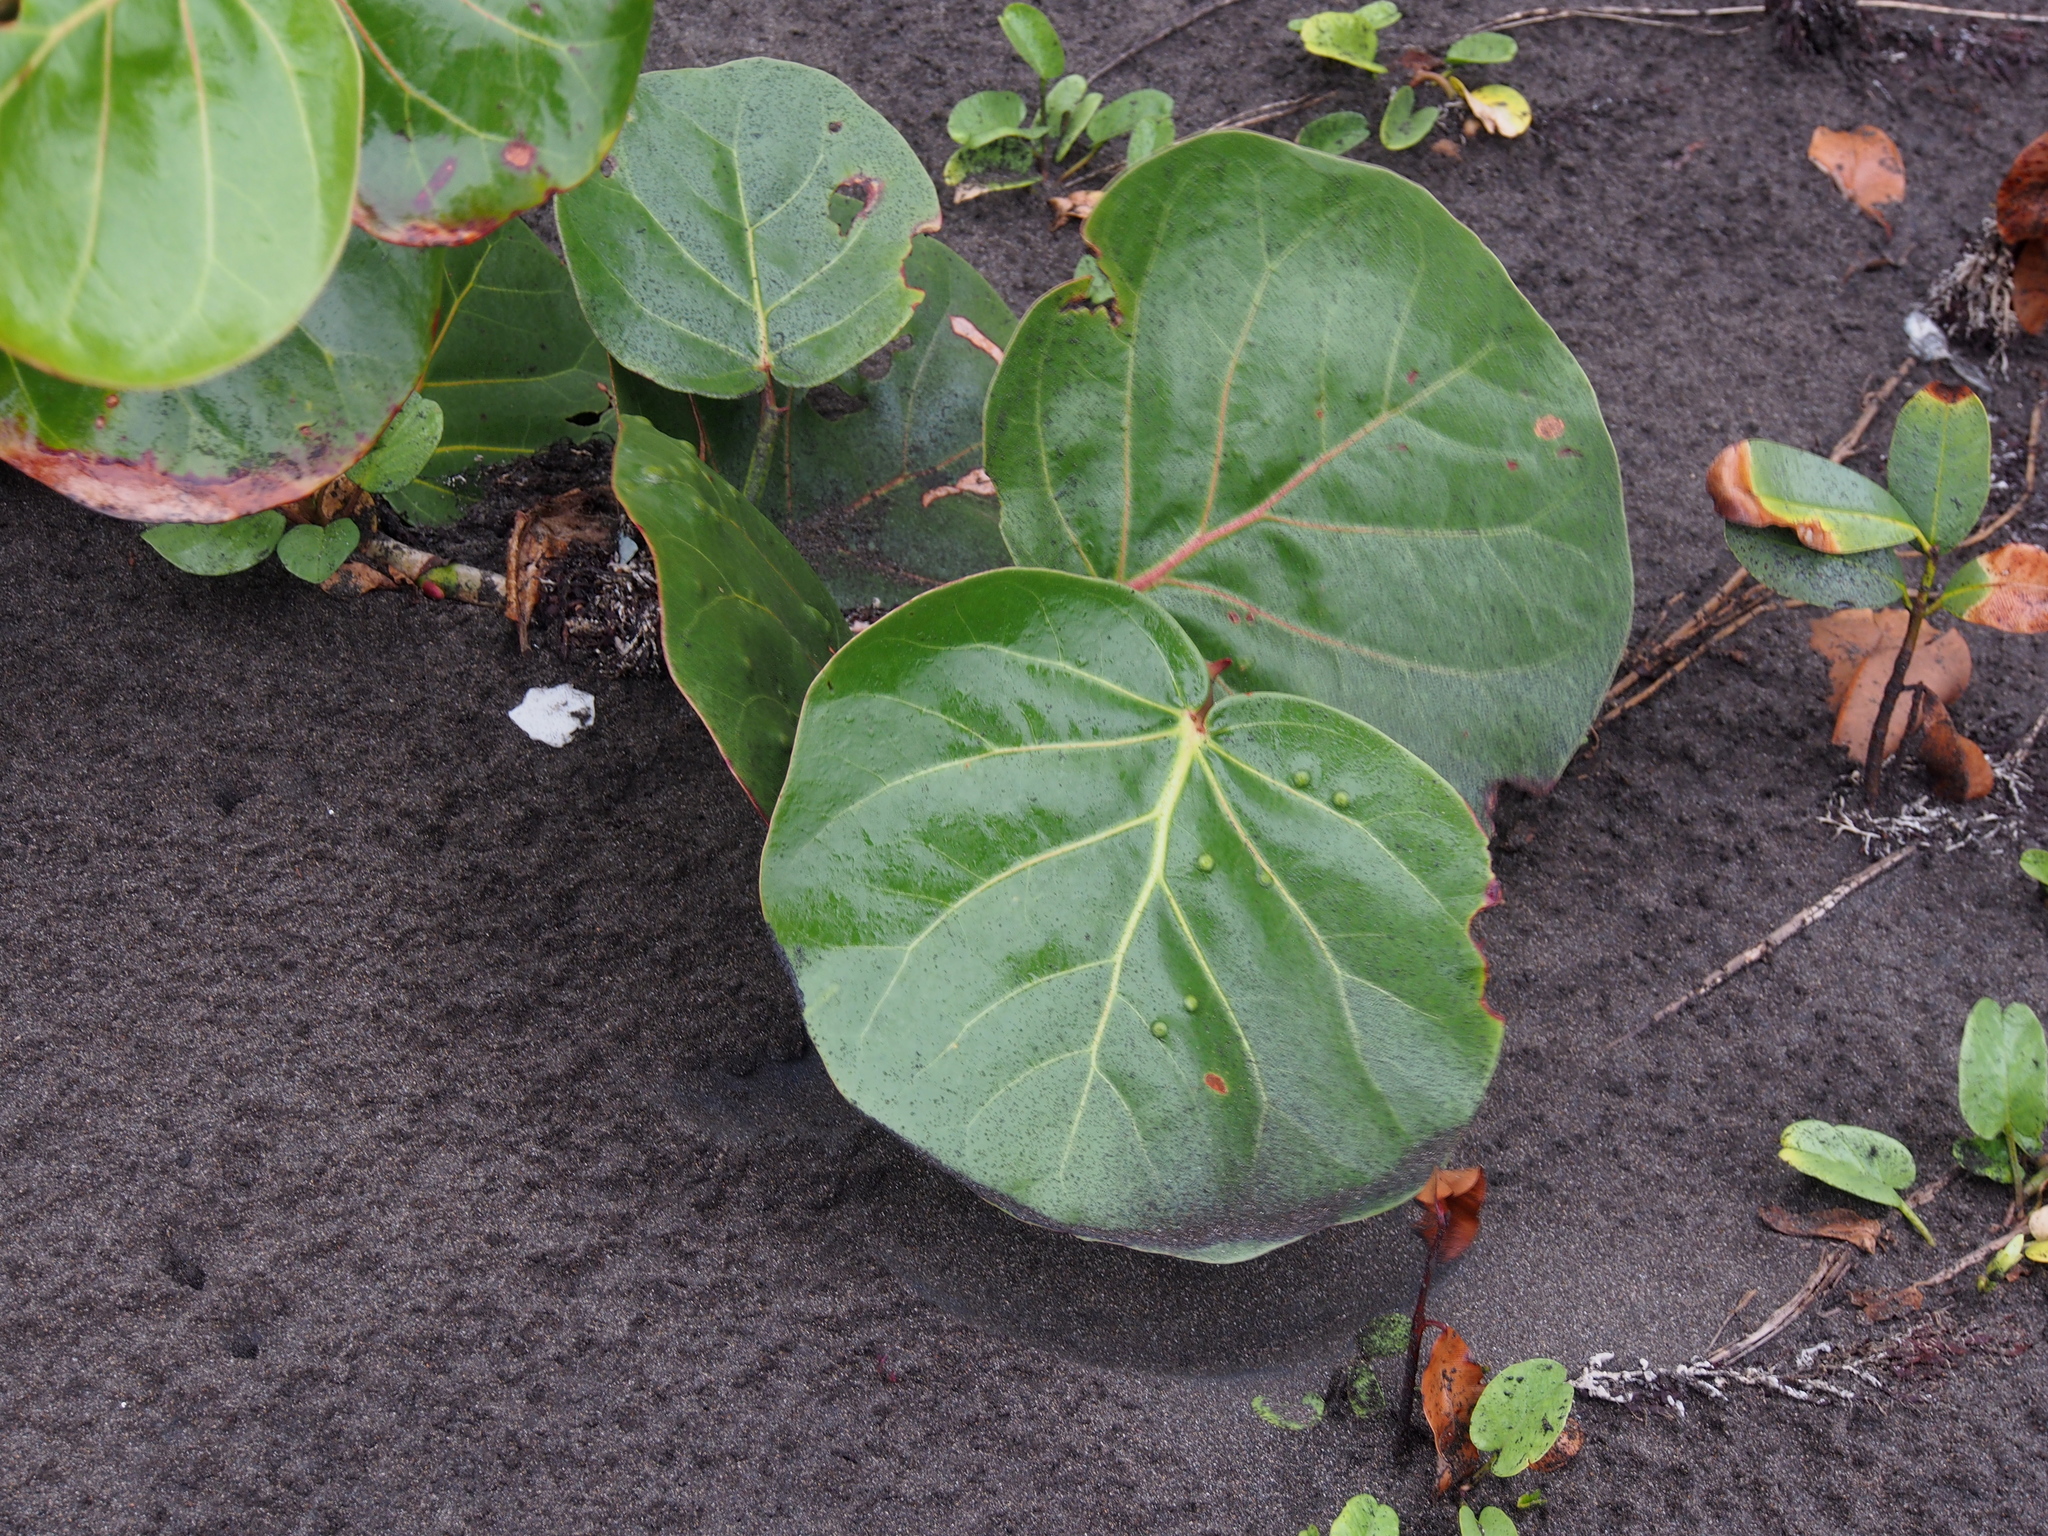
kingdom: Plantae
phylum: Tracheophyta
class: Magnoliopsida
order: Caryophyllales
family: Polygonaceae
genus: Coccoloba
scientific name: Coccoloba uvifera
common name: Seagrape
